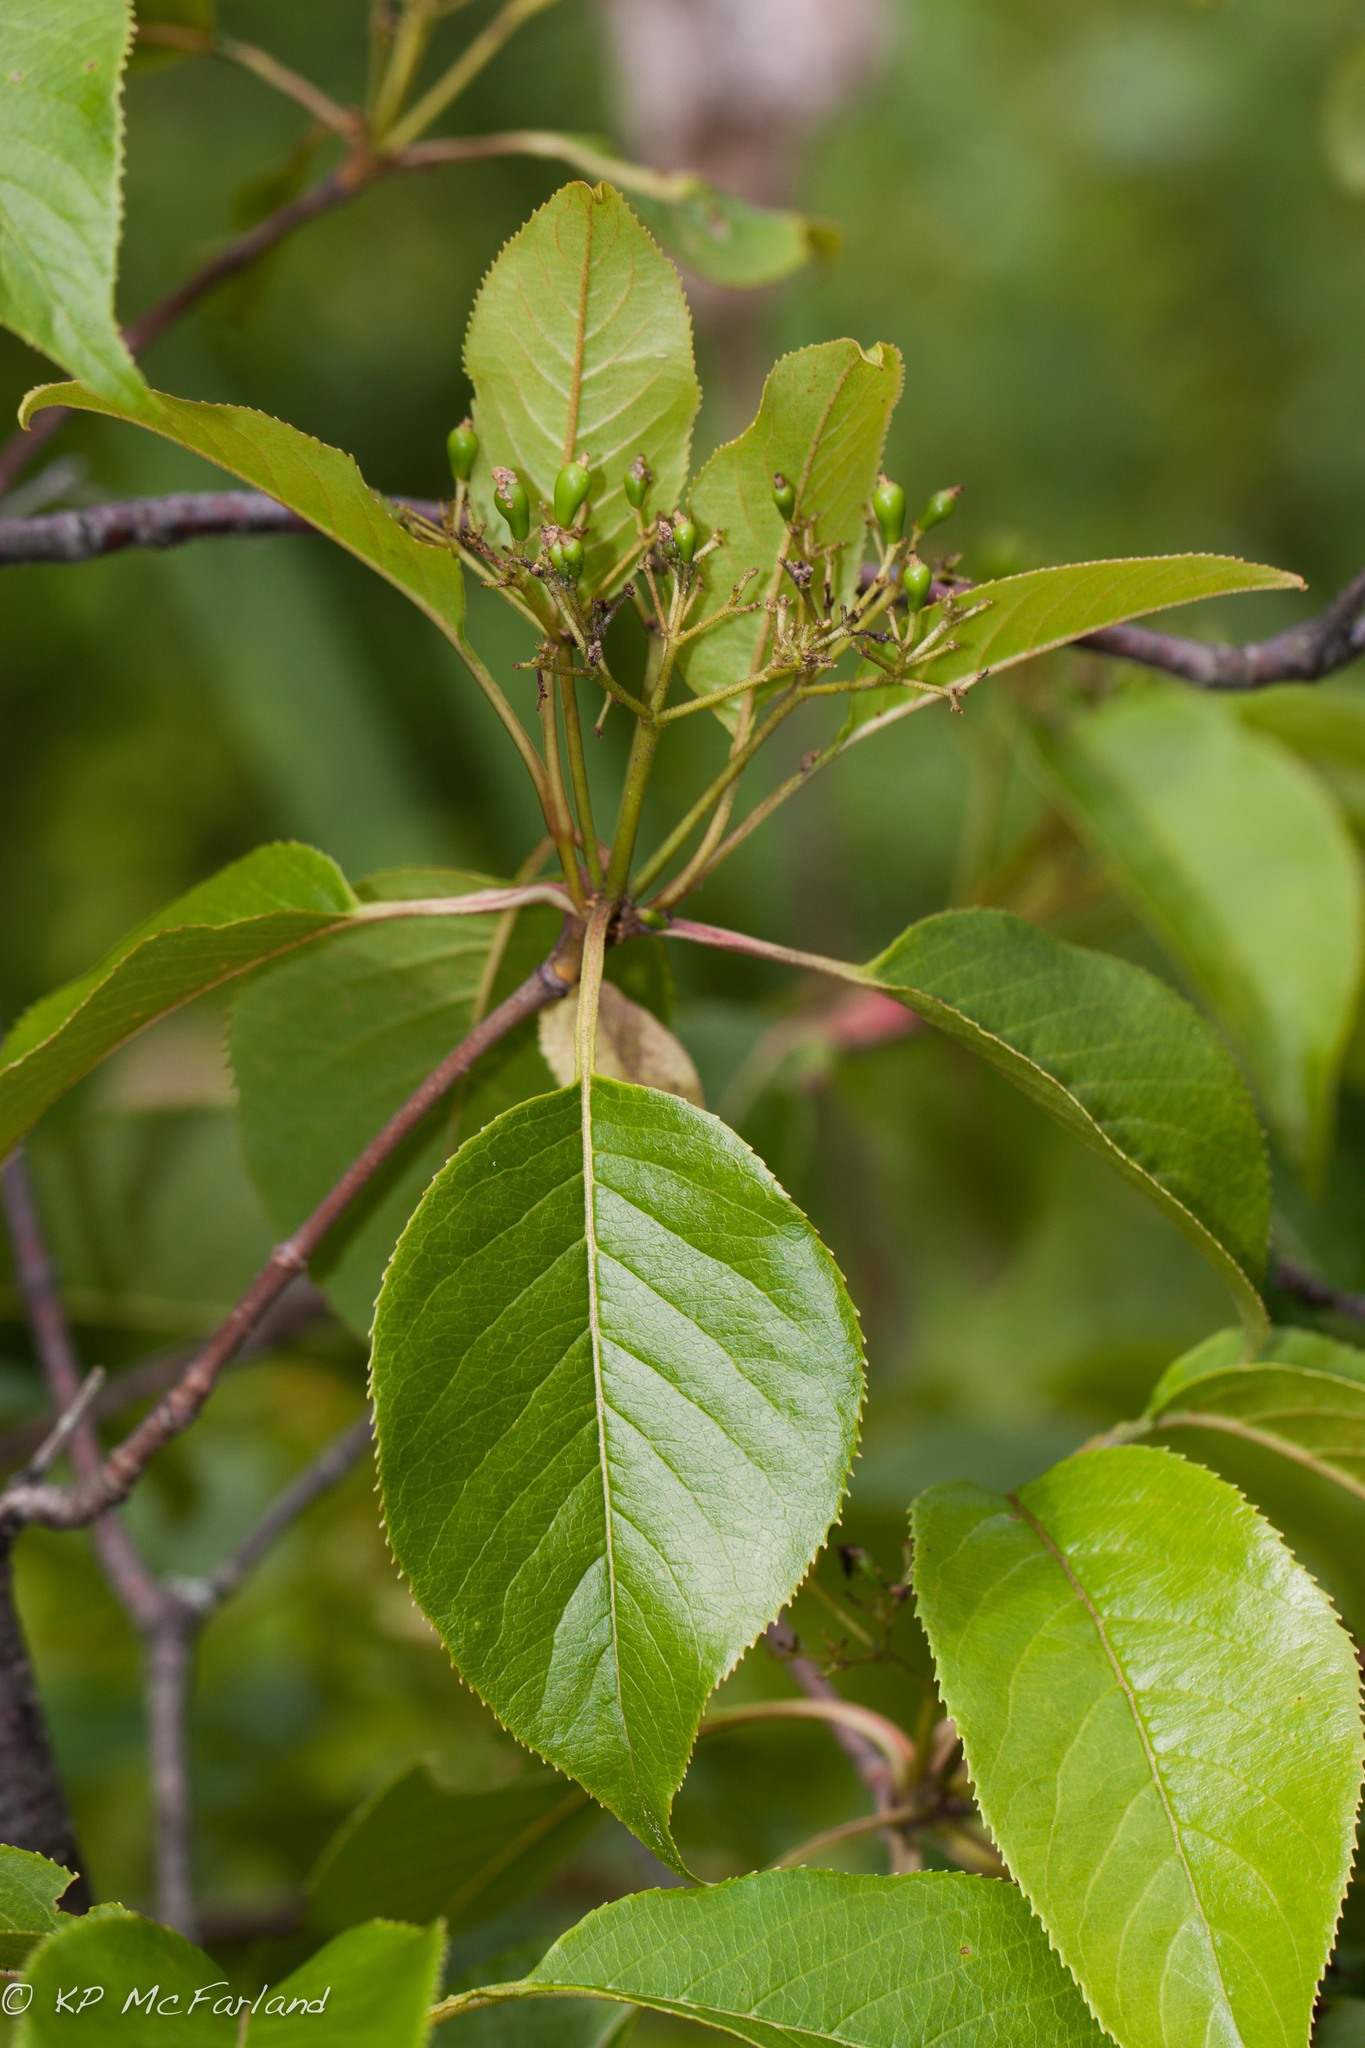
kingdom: Plantae
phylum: Tracheophyta
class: Magnoliopsida
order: Dipsacales
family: Viburnaceae
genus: Viburnum
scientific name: Viburnum lentago
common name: Black haw
